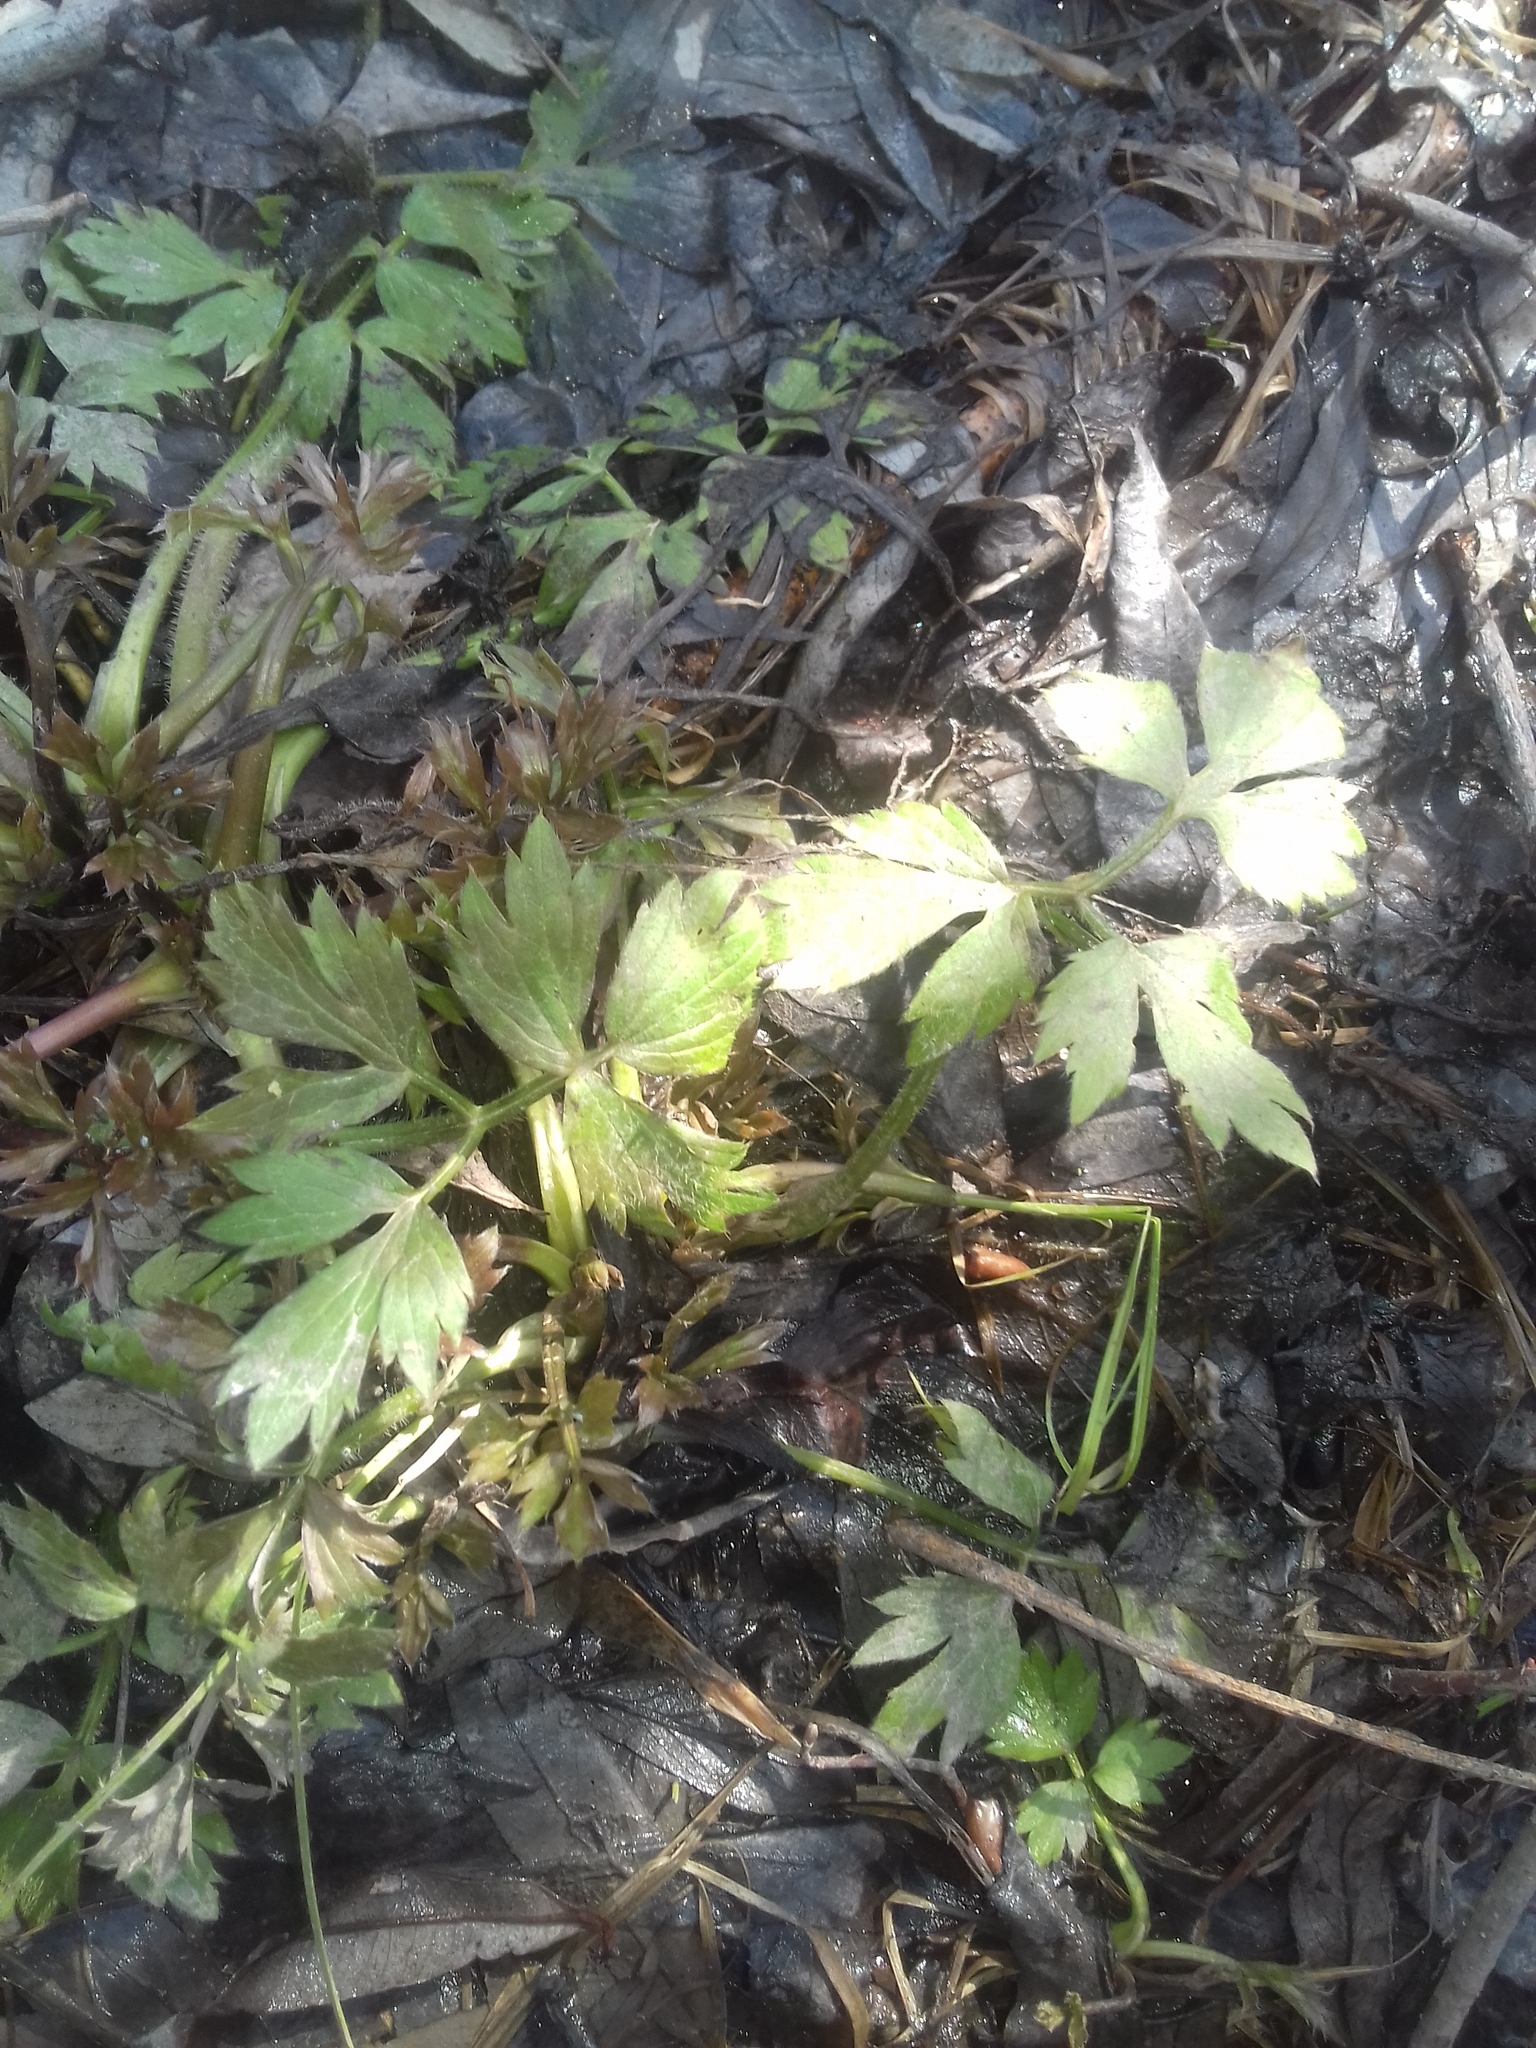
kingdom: Plantae
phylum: Tracheophyta
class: Magnoliopsida
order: Ranunculales
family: Ranunculaceae
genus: Ranunculus
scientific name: Ranunculus repens
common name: Creeping buttercup
